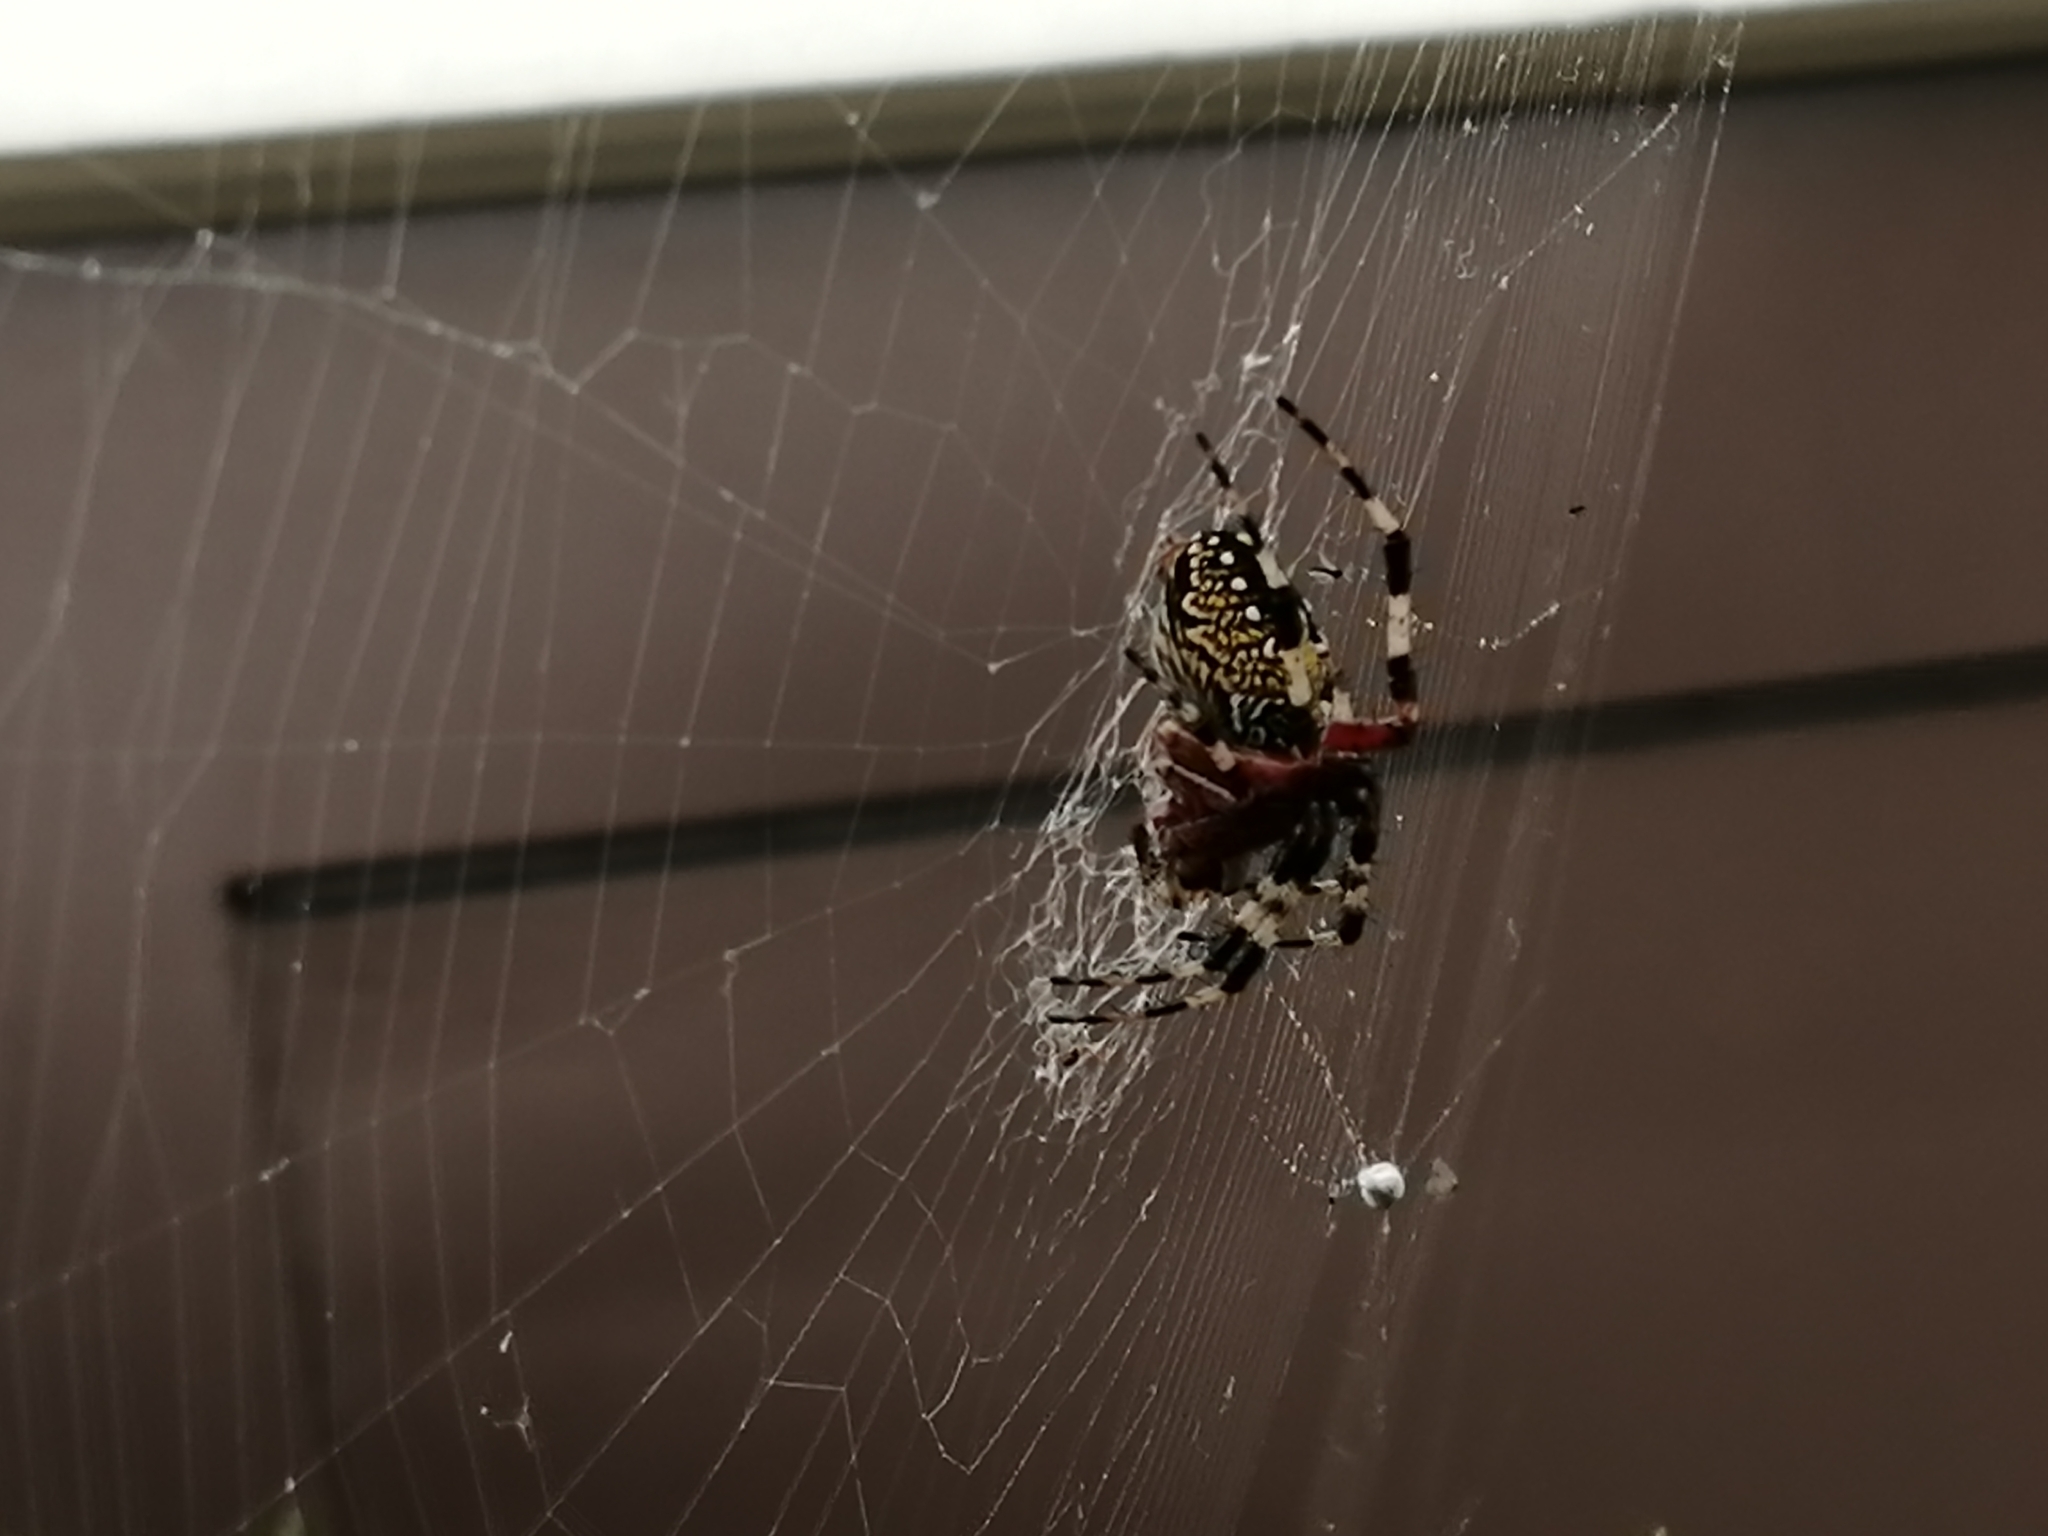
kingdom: Animalia
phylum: Arthropoda
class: Arachnida
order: Araneae
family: Araneidae
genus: Neoscona
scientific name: Neoscona oaxacensis
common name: Orb weavers
